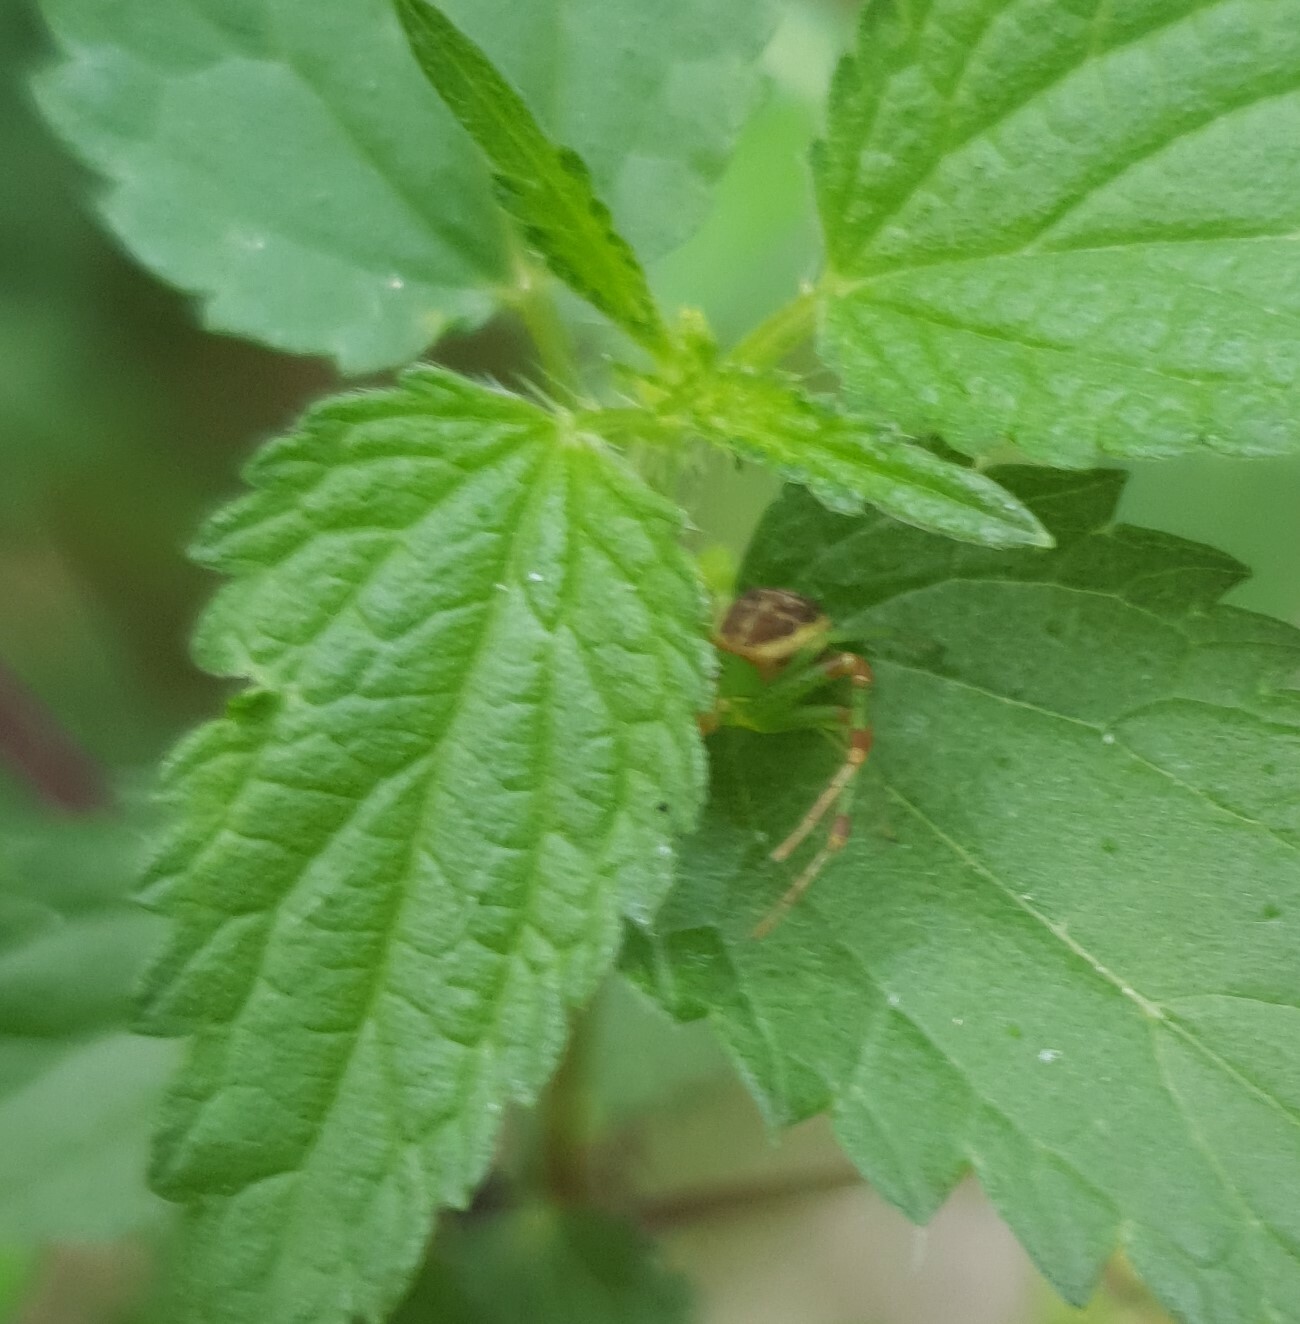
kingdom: Animalia
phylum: Arthropoda
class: Arachnida
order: Araneae
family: Thomisidae
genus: Diaea
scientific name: Diaea dorsata
